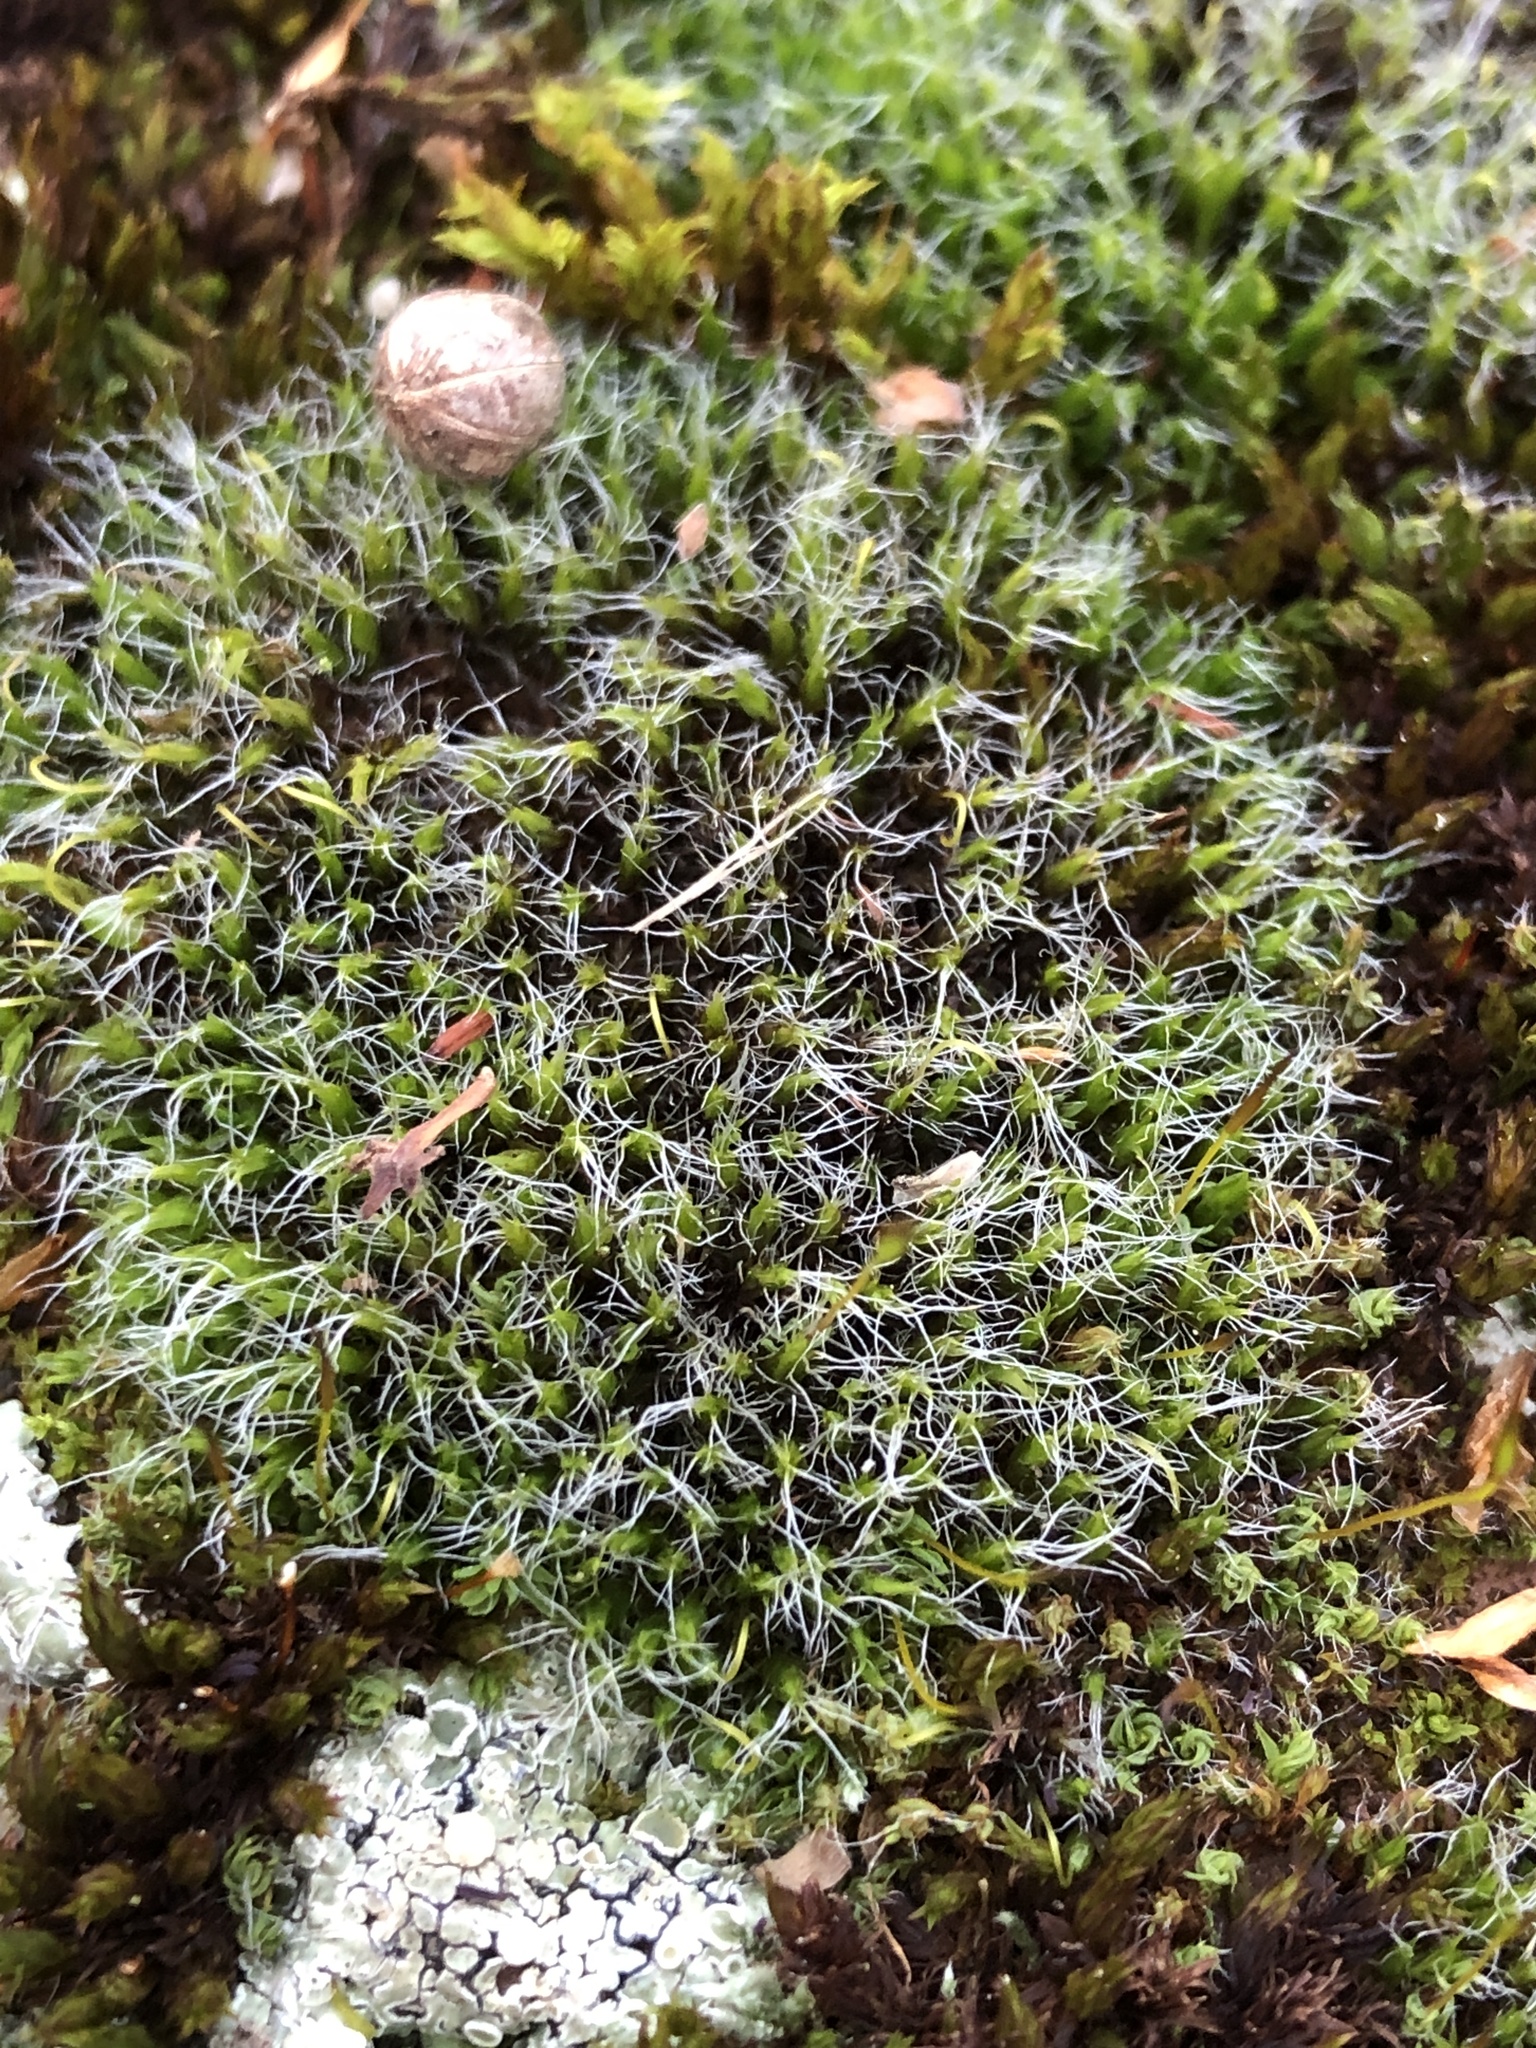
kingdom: Plantae
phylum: Bryophyta
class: Bryopsida
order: Grimmiales
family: Grimmiaceae
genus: Grimmia
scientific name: Grimmia pulvinata
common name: Grey-cushioned grimmia
